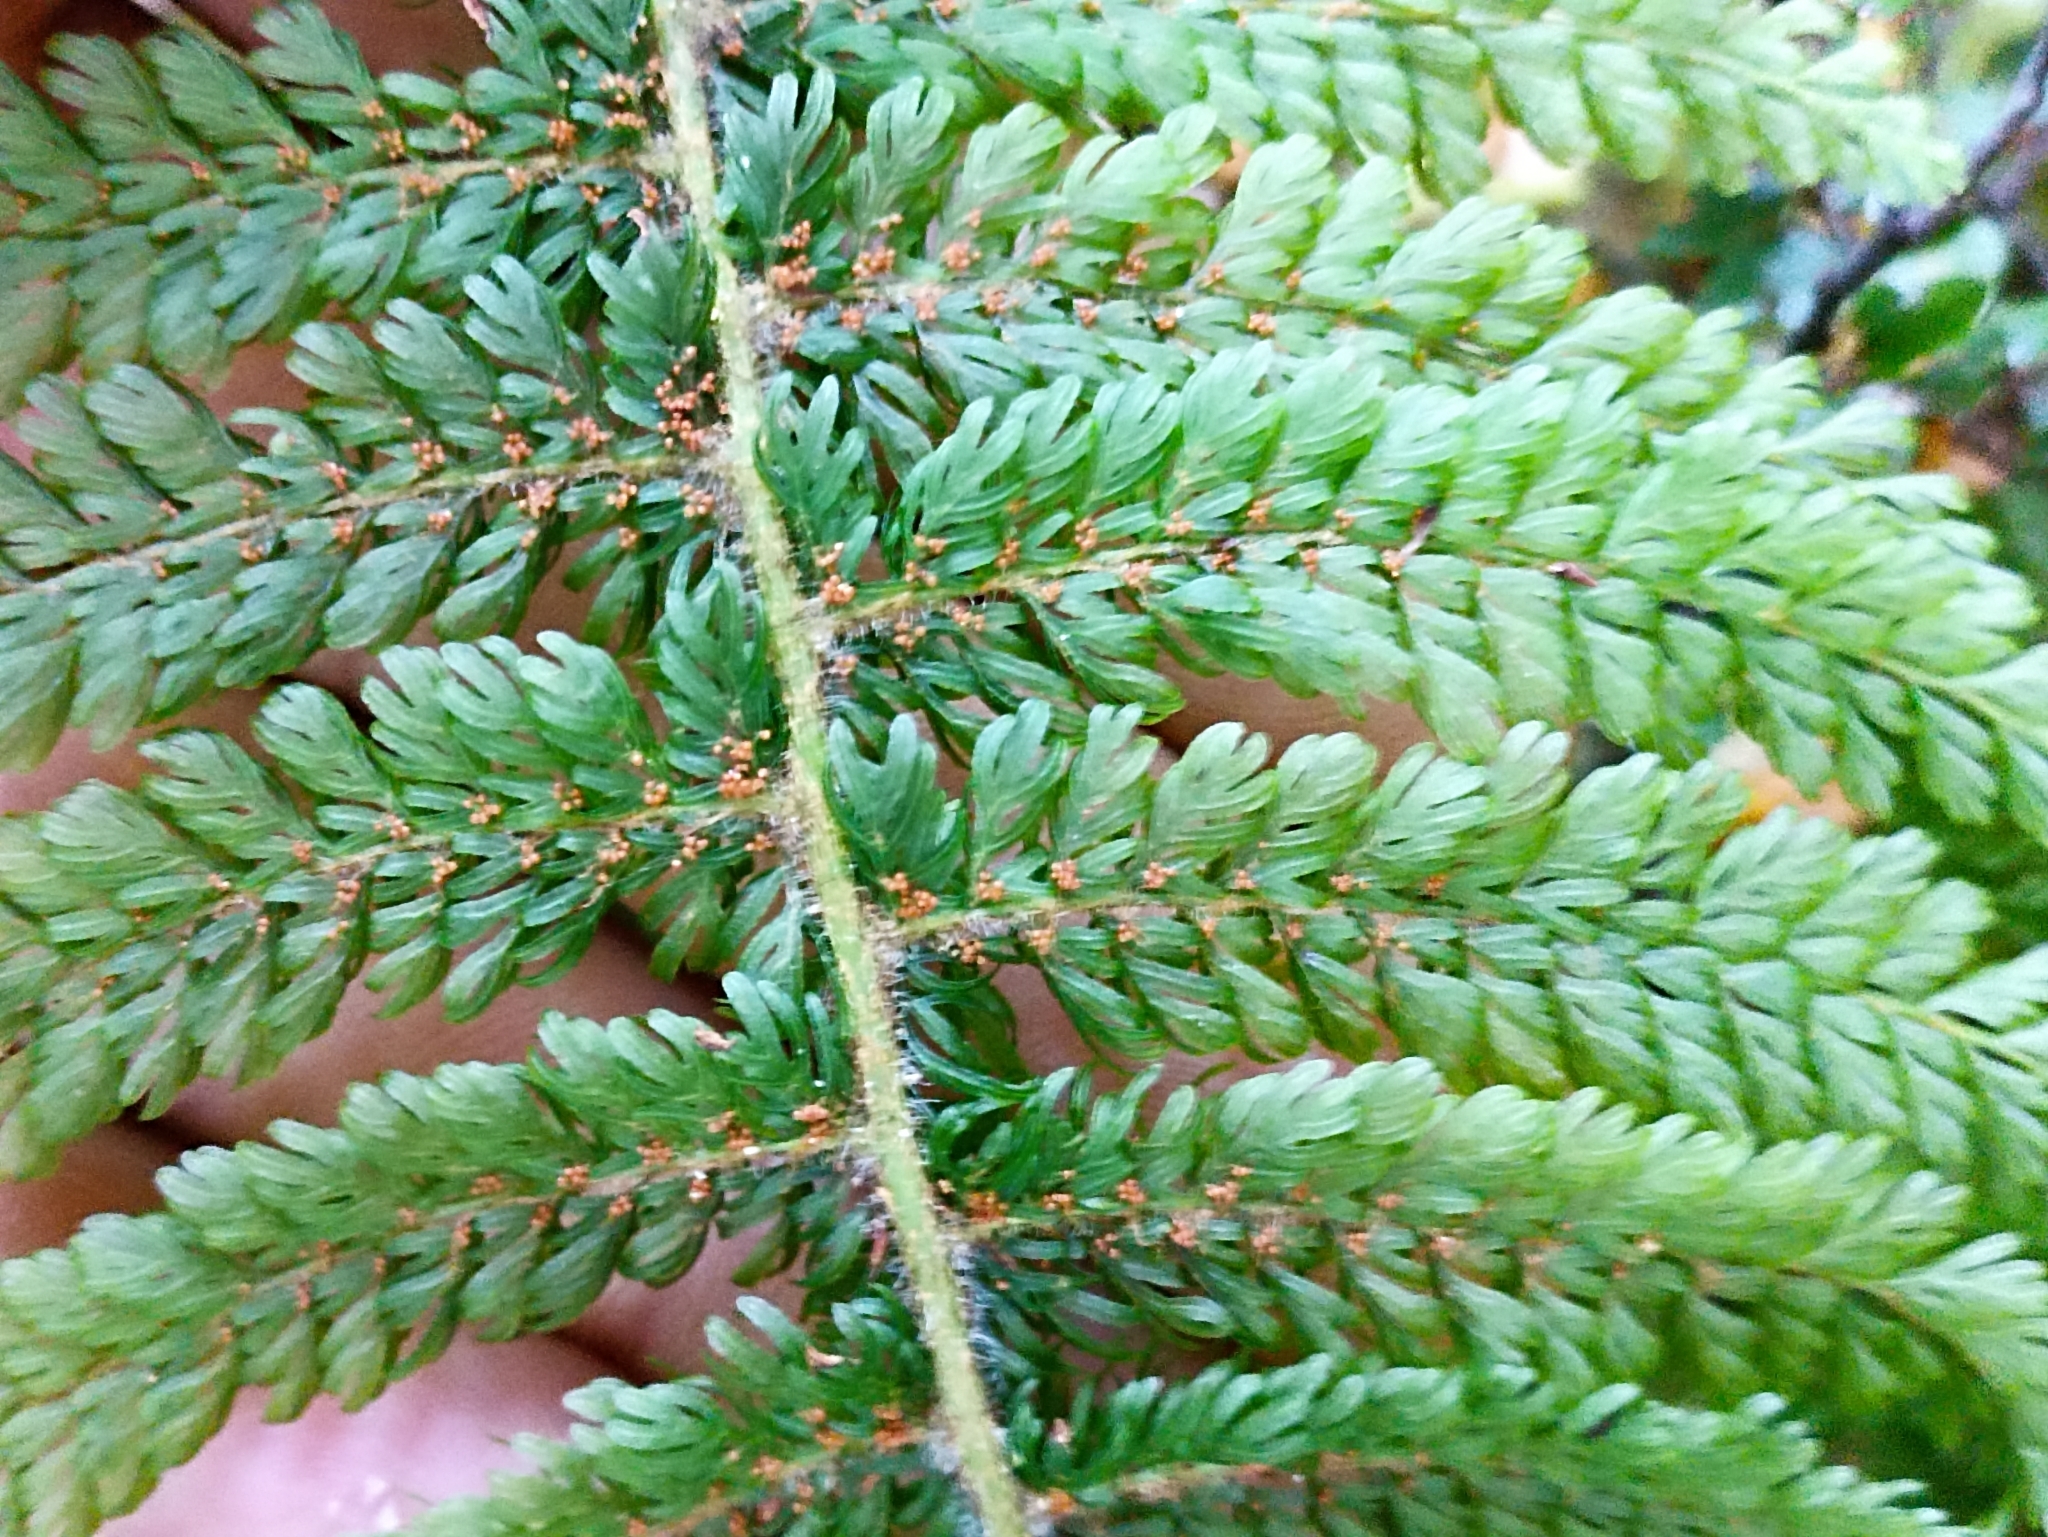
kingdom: Plantae
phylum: Tracheophyta
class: Polypodiopsida
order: Osmundales
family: Osmundaceae
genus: Leptopteris
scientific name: Leptopteris superba
